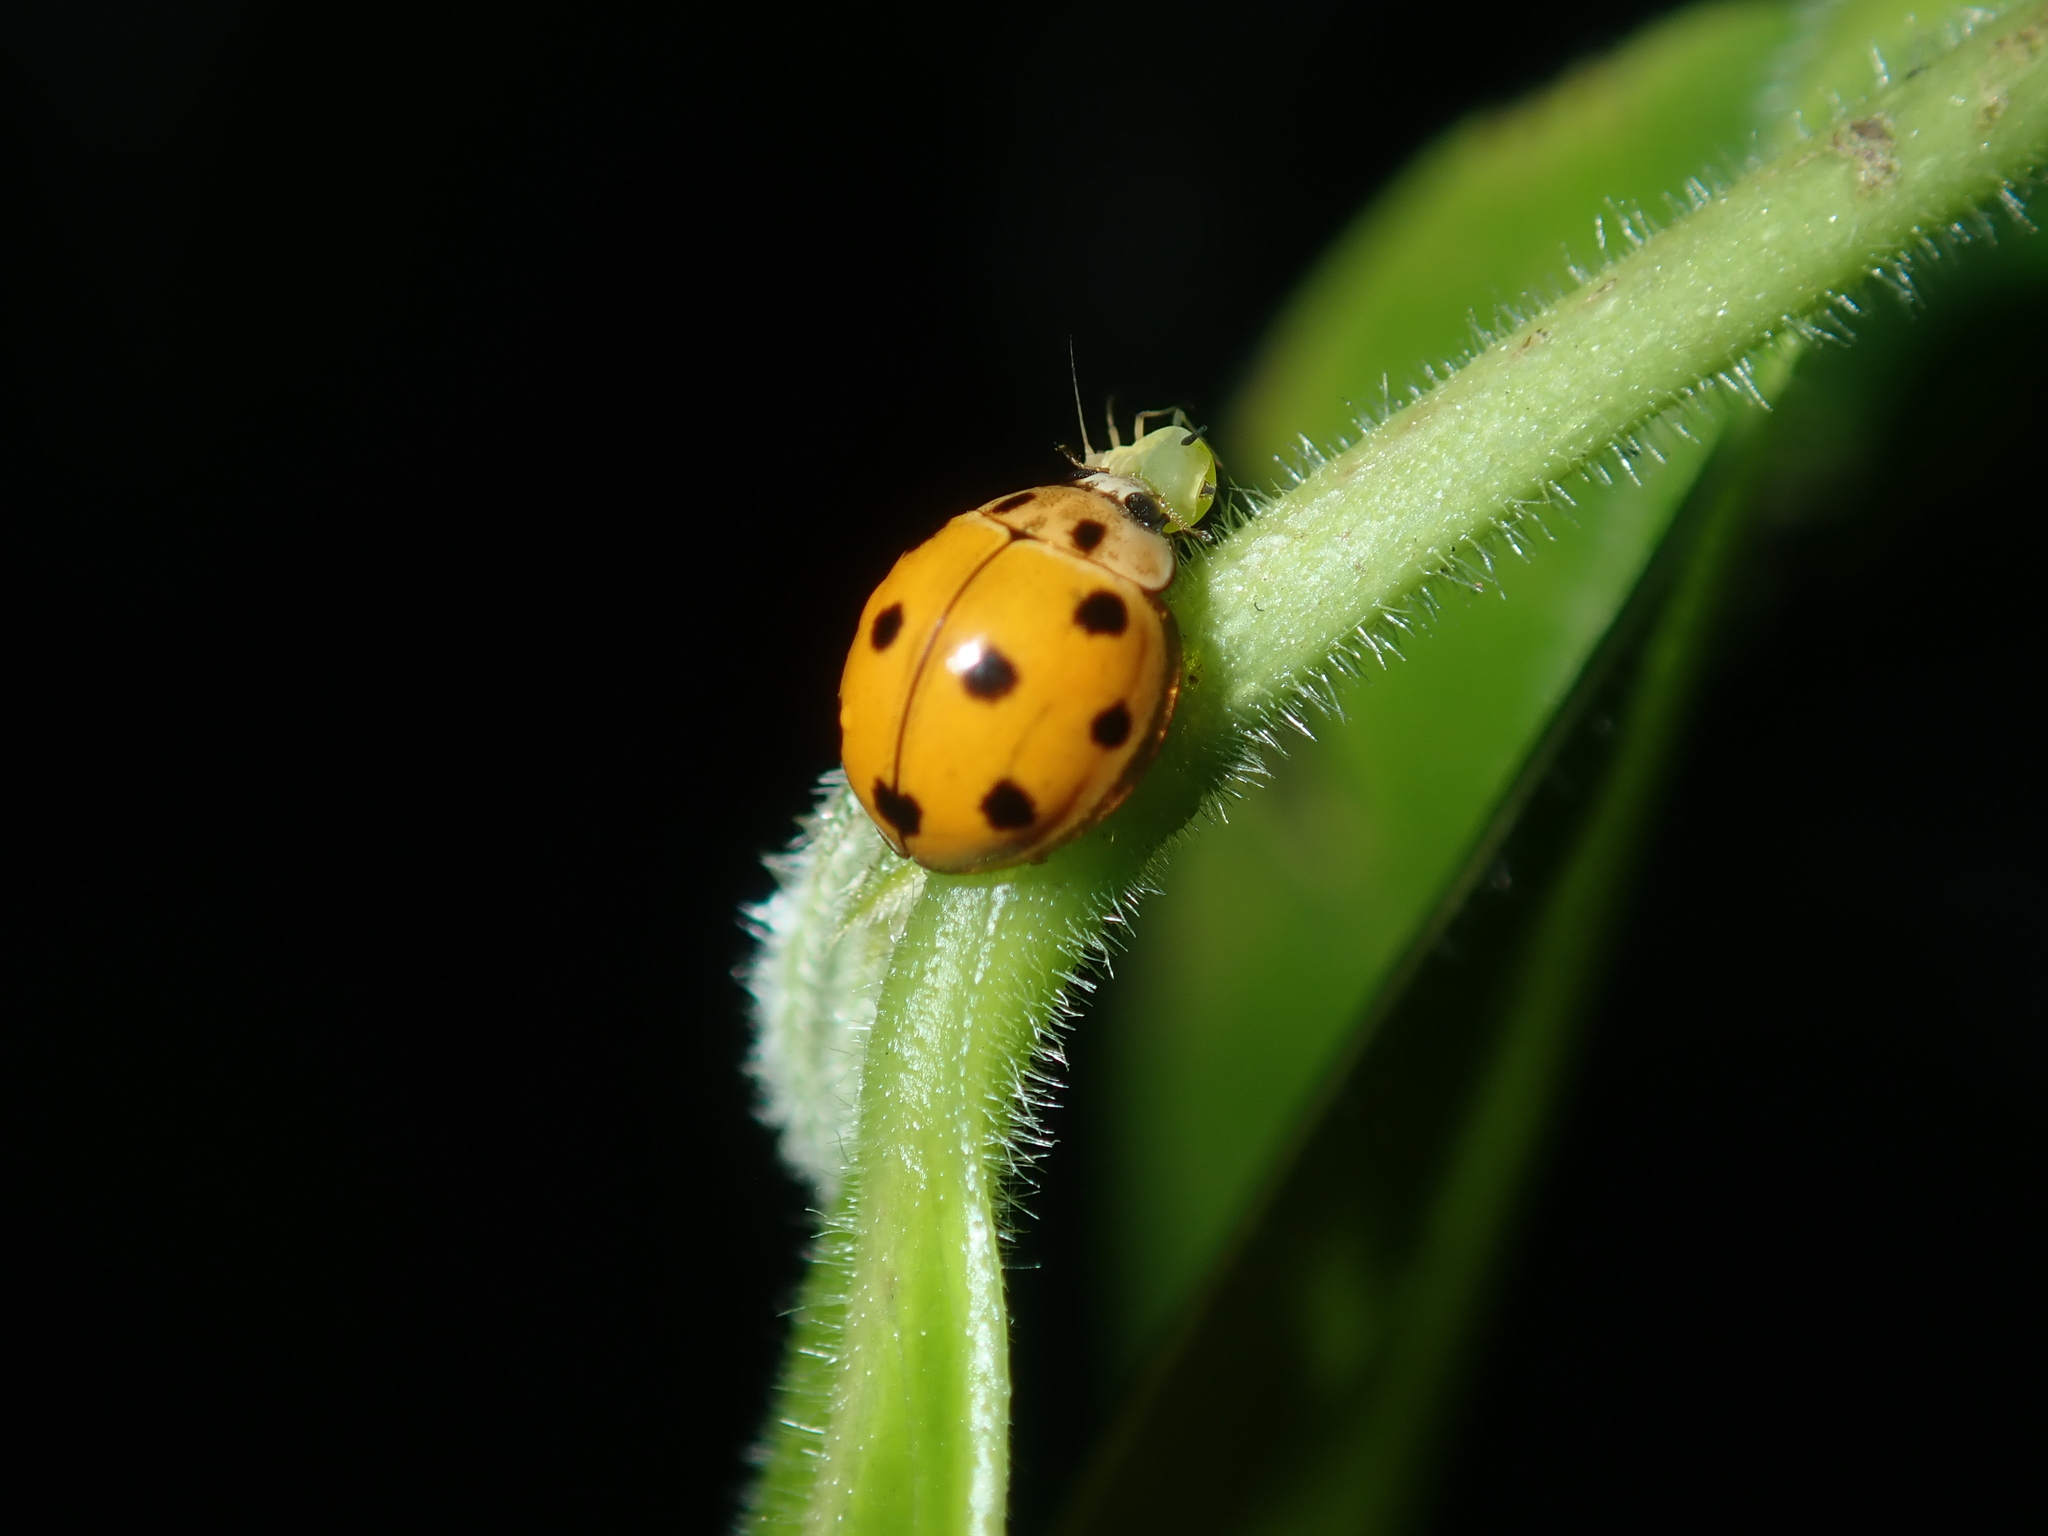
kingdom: Animalia
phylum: Arthropoda
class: Insecta
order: Coleoptera
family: Coccinellidae
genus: Coelophora
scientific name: Coelophora inaequalis
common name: Common australian lady beetle
